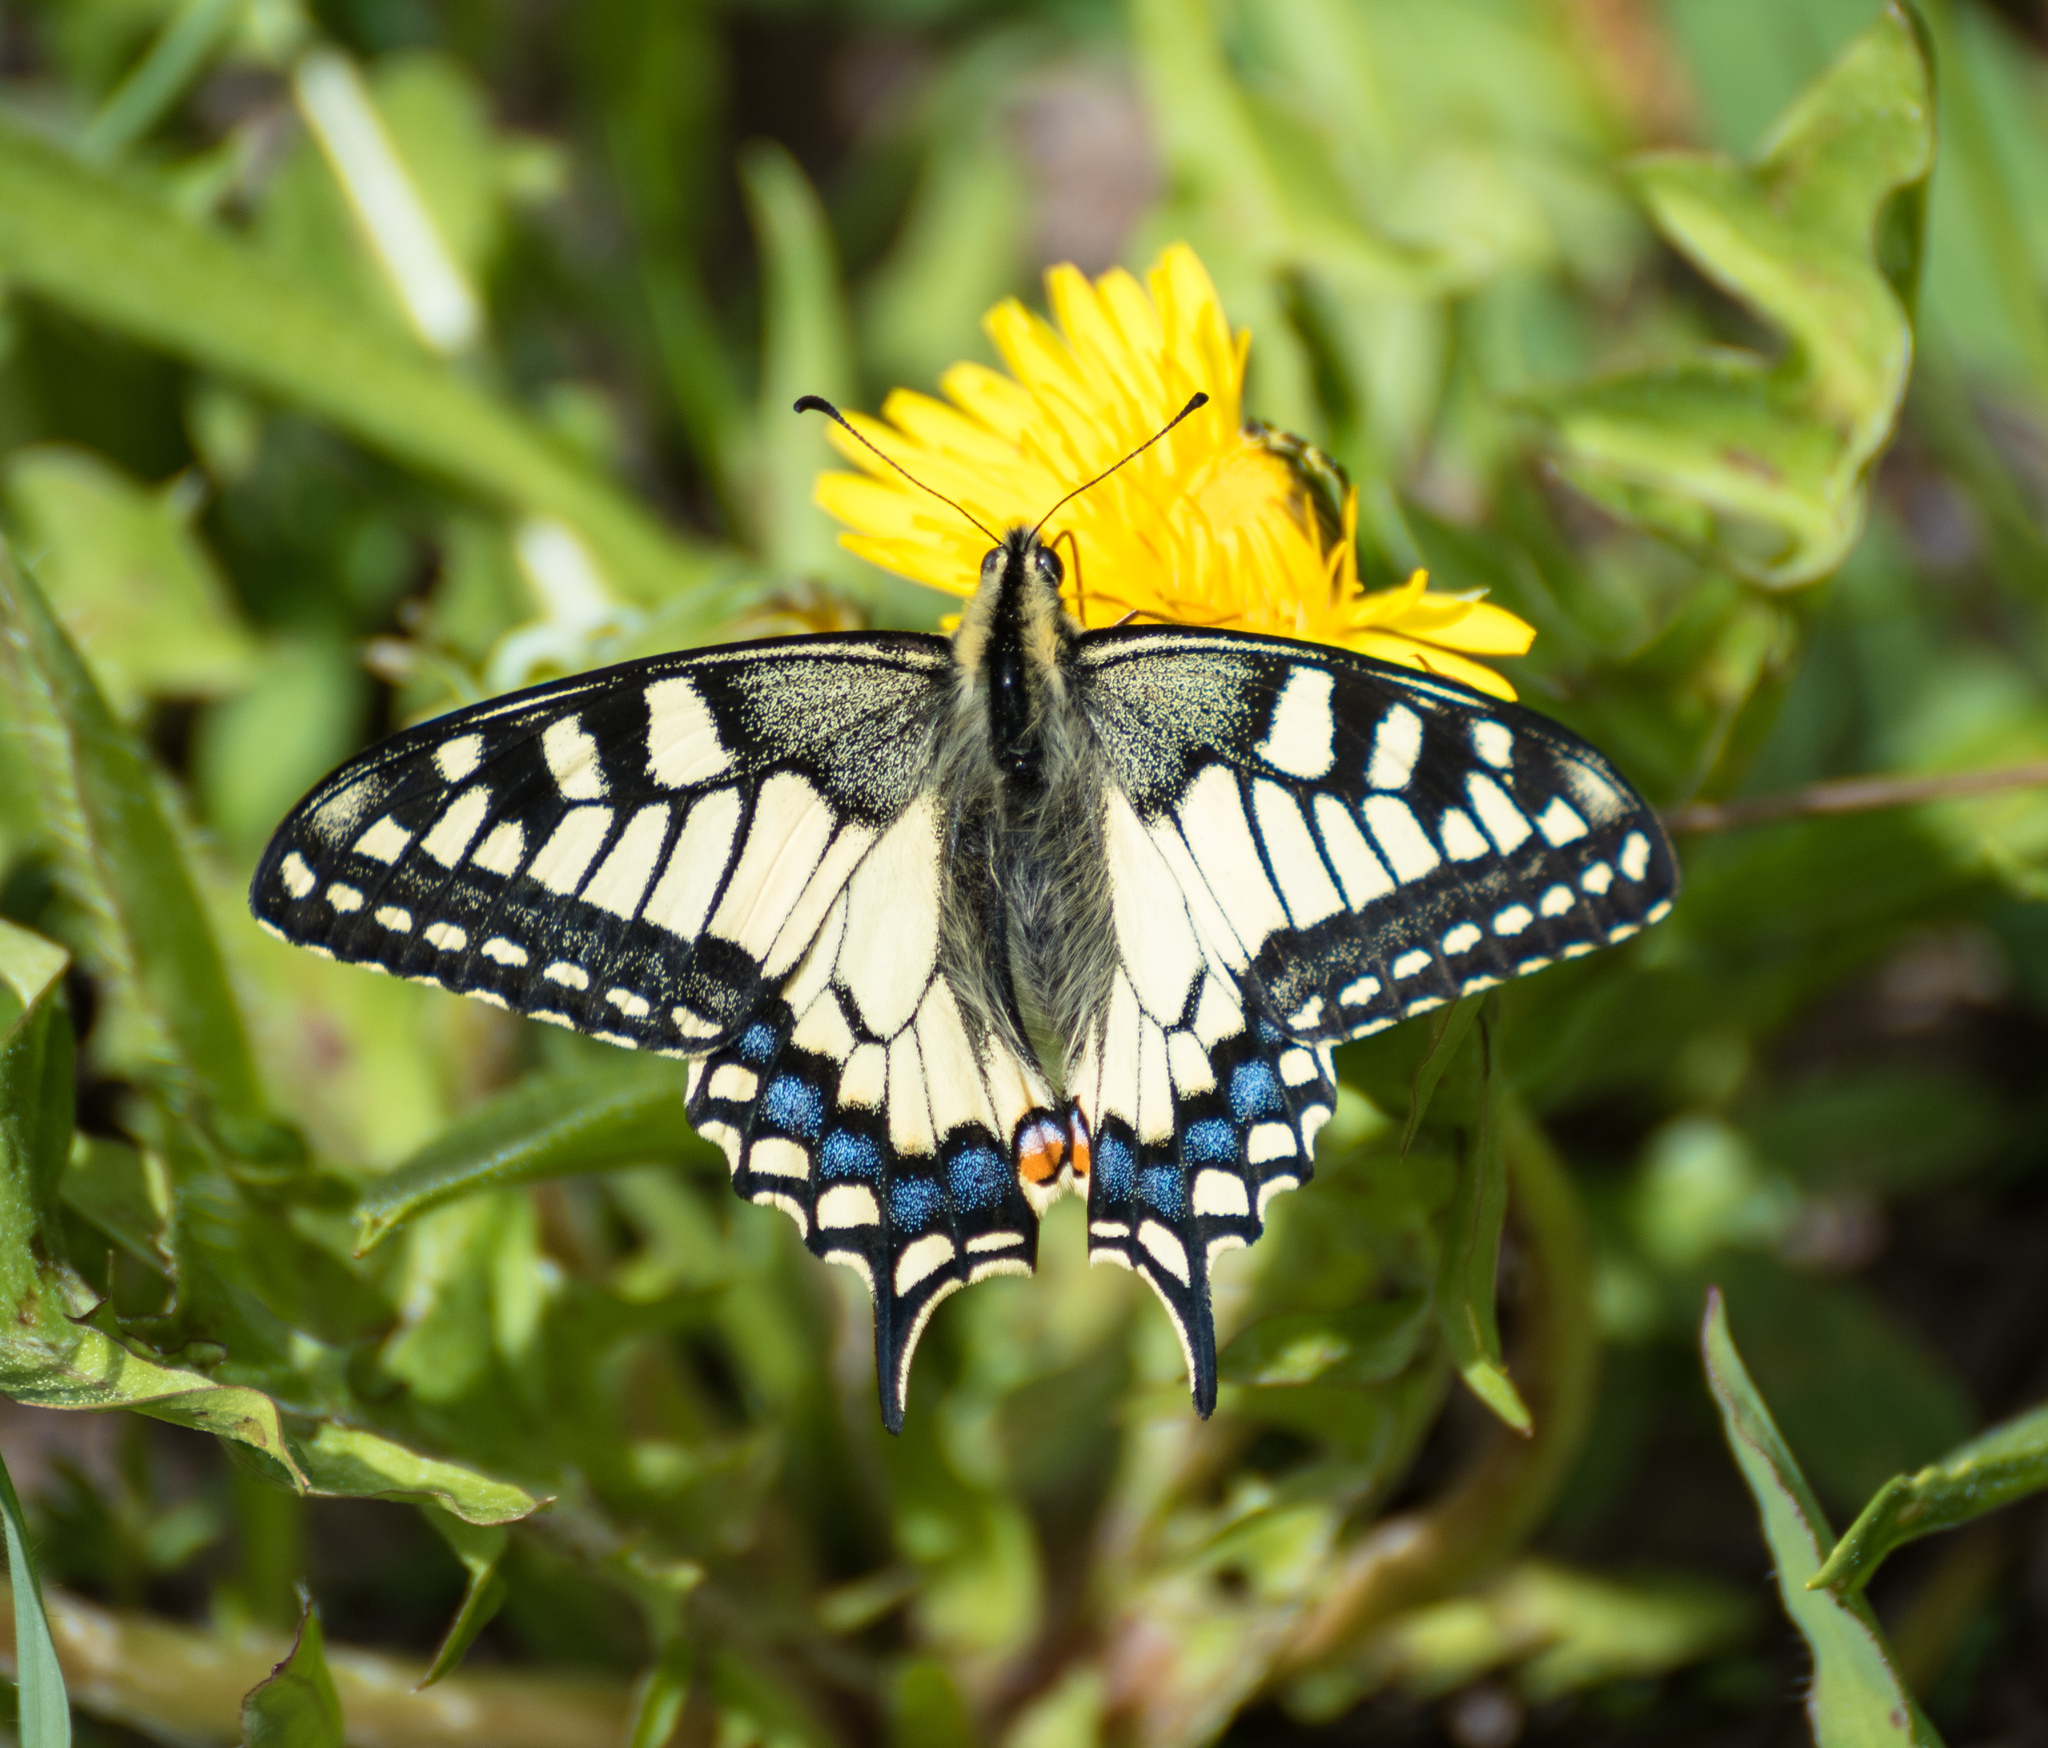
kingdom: Animalia
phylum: Arthropoda
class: Insecta
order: Lepidoptera
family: Papilionidae
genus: Papilio
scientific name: Papilio machaon
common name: Swallowtail
